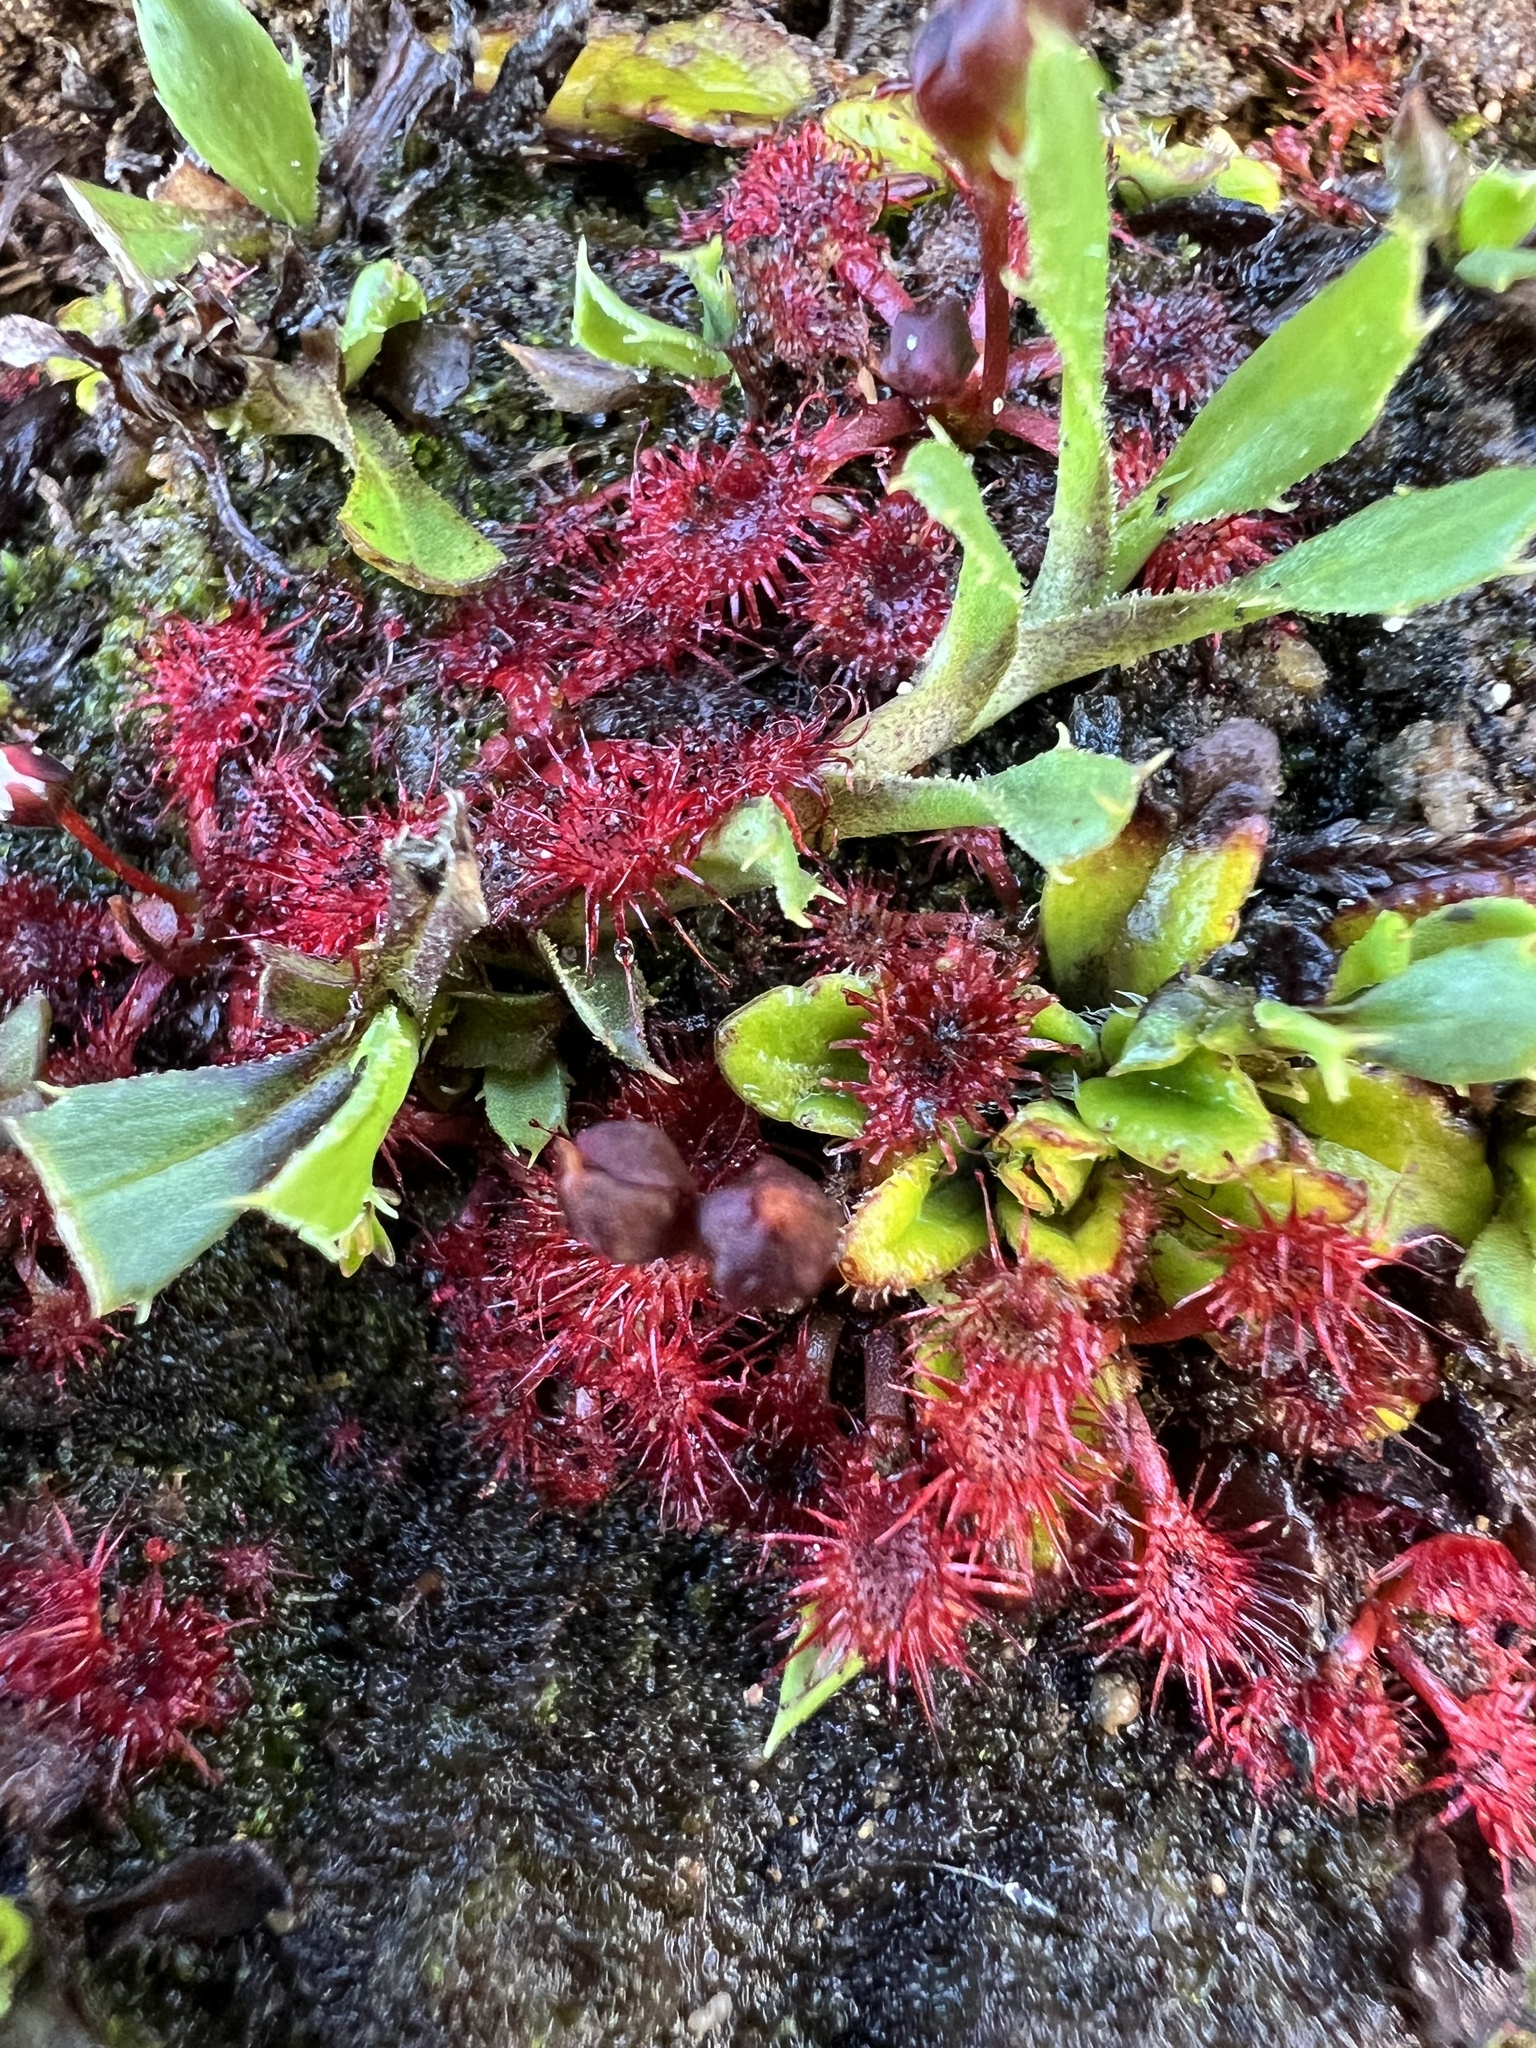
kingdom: Plantae
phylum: Tracheophyta
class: Magnoliopsida
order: Caryophyllales
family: Droseraceae
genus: Drosera
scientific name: Drosera spatulata
